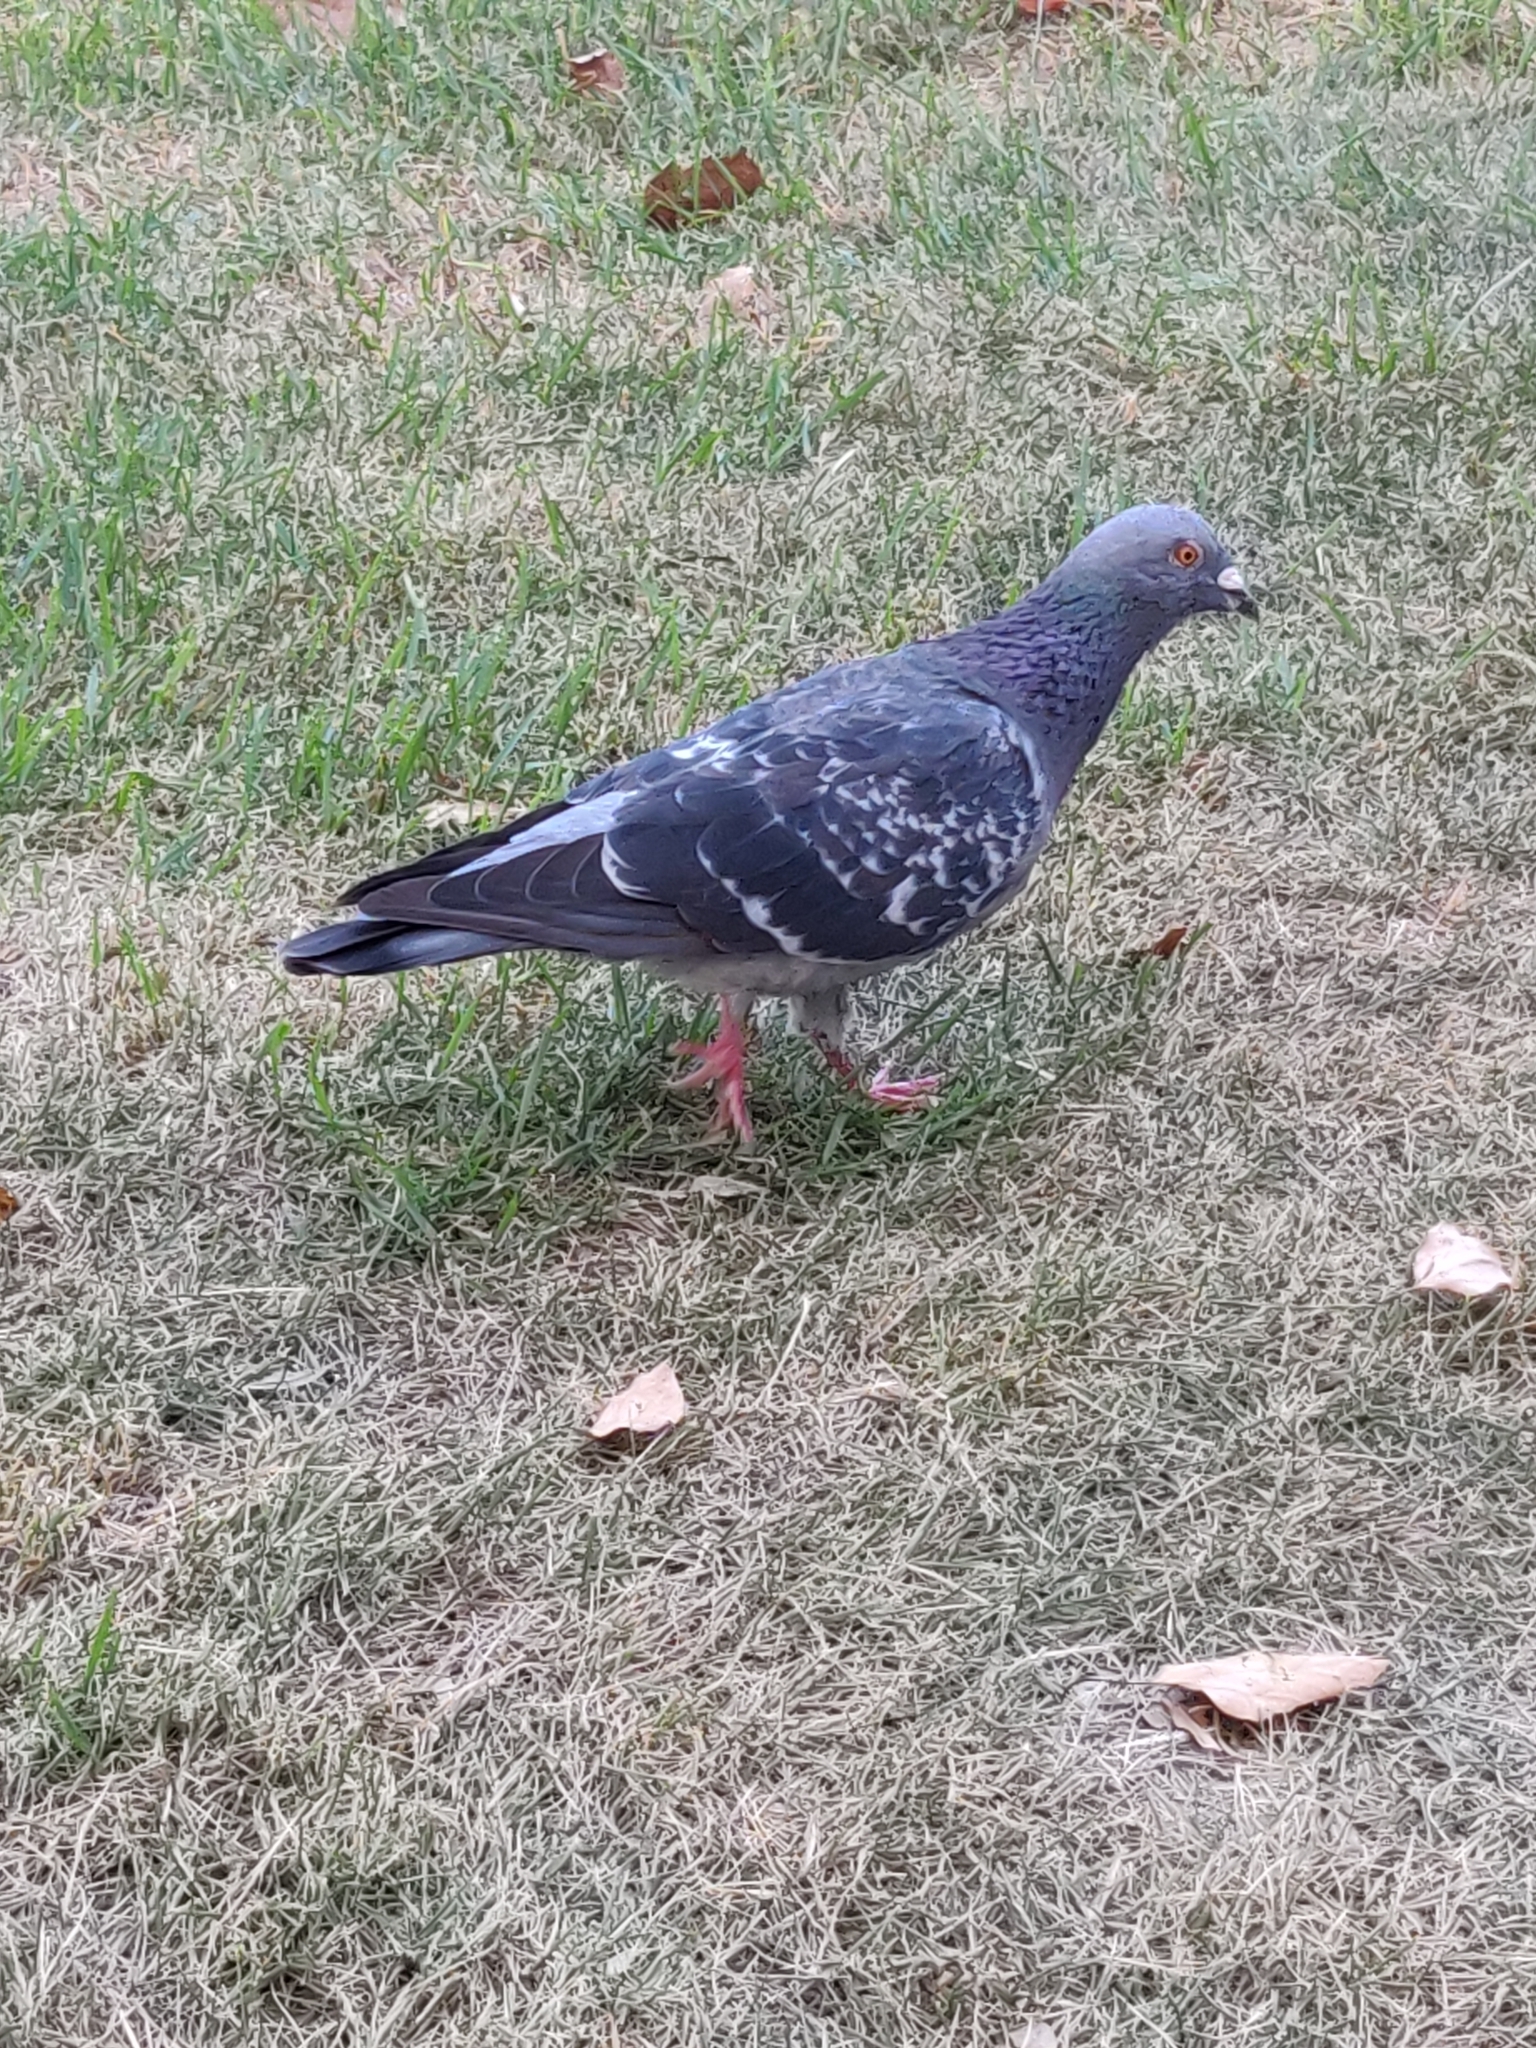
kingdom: Animalia
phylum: Chordata
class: Aves
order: Columbiformes
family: Columbidae
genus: Columba
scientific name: Columba livia
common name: Rock pigeon
